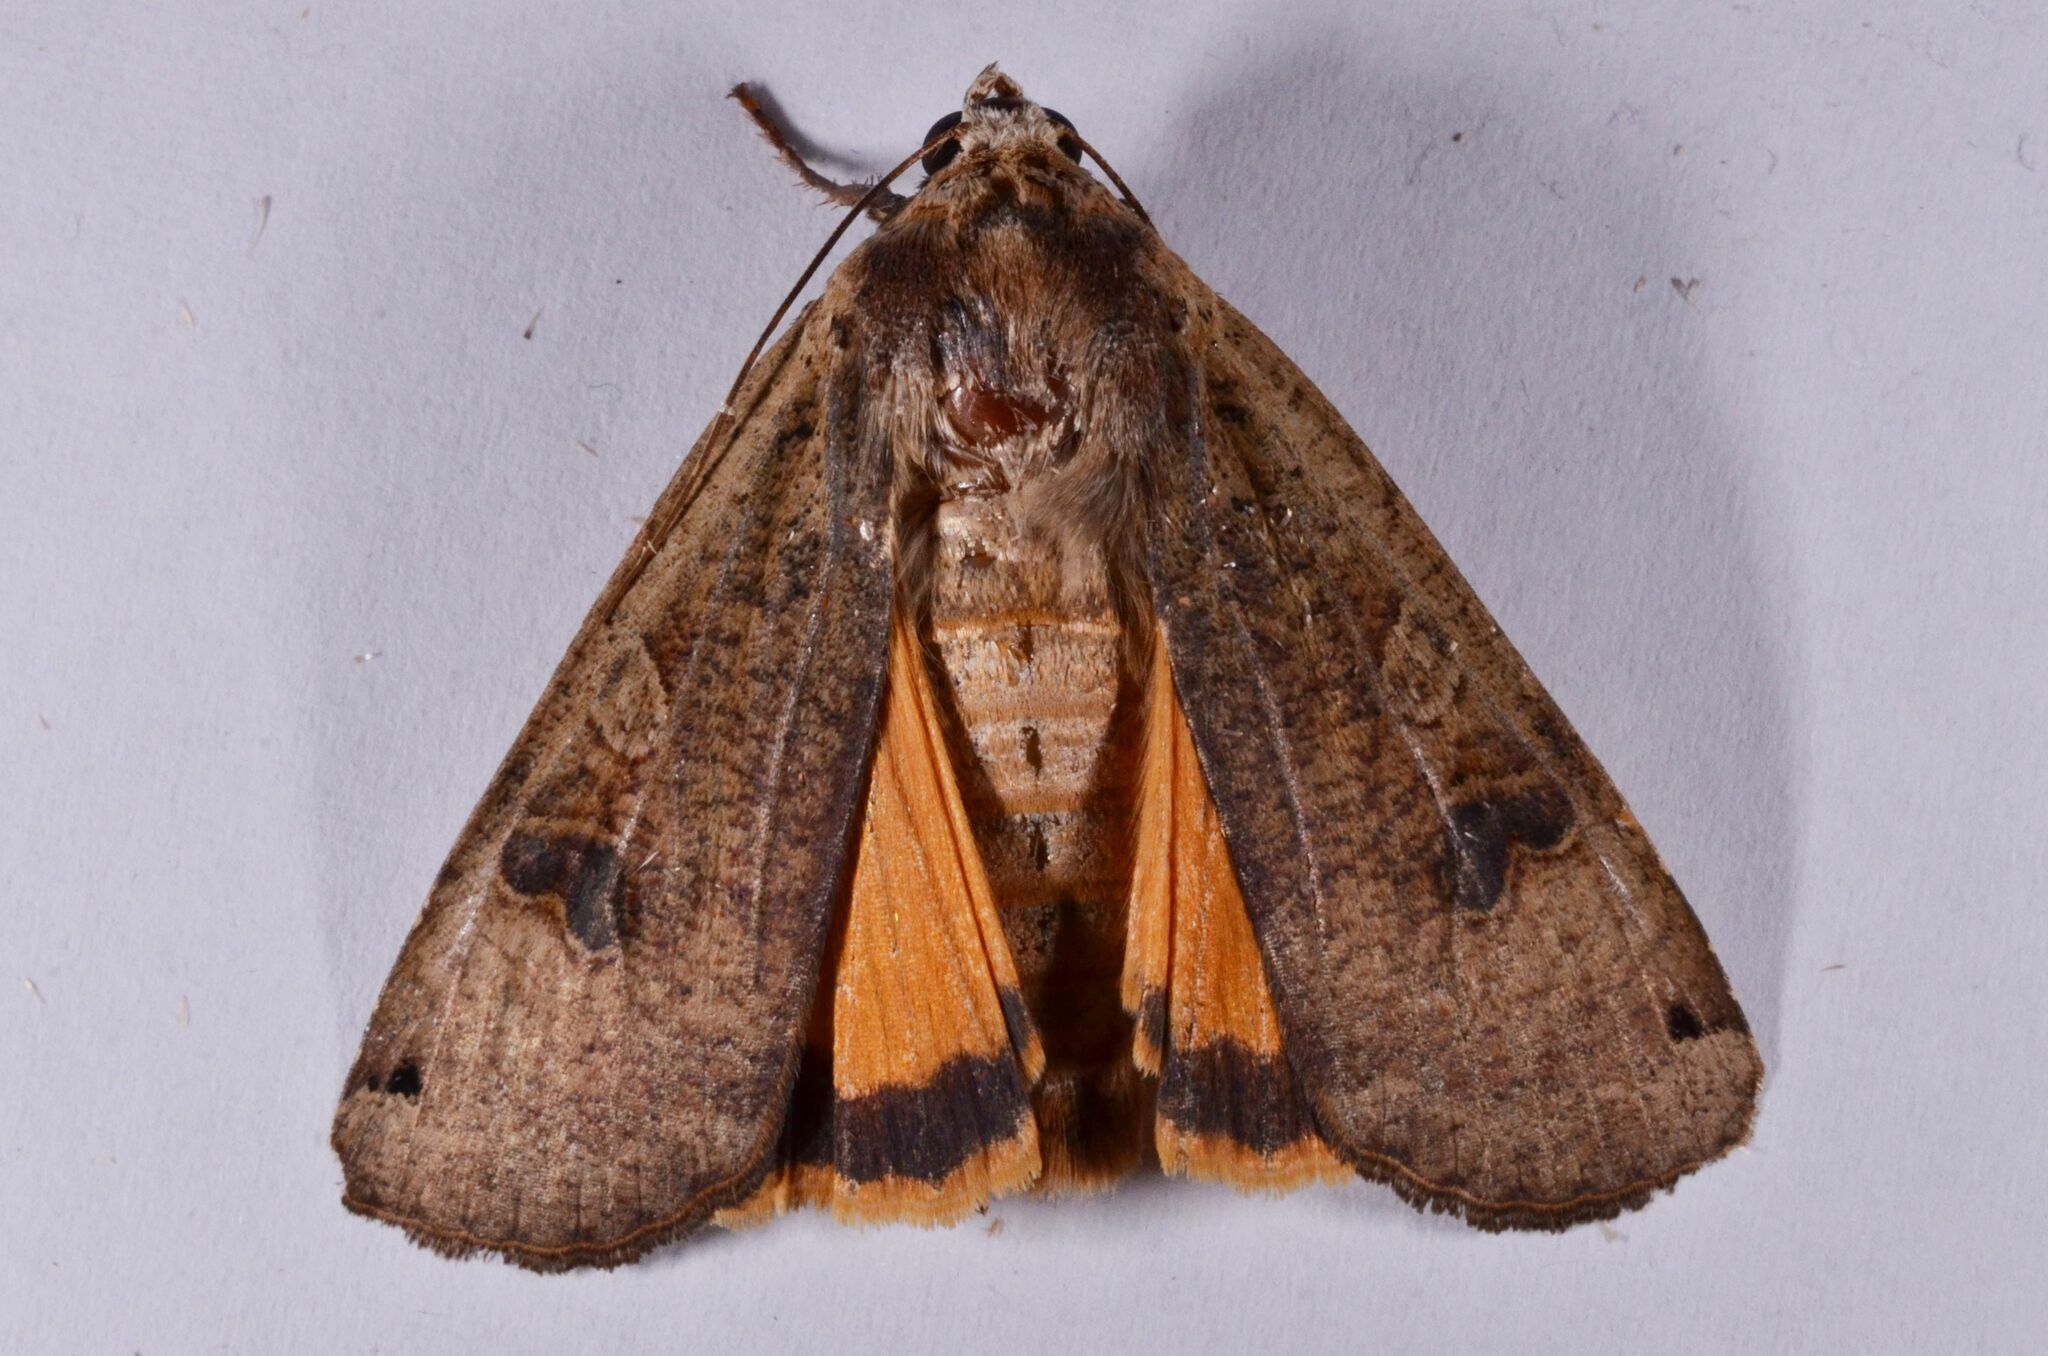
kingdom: Animalia
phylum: Arthropoda
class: Insecta
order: Lepidoptera
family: Noctuidae
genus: Noctua
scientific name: Noctua pronuba
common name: Large yellow underwing
